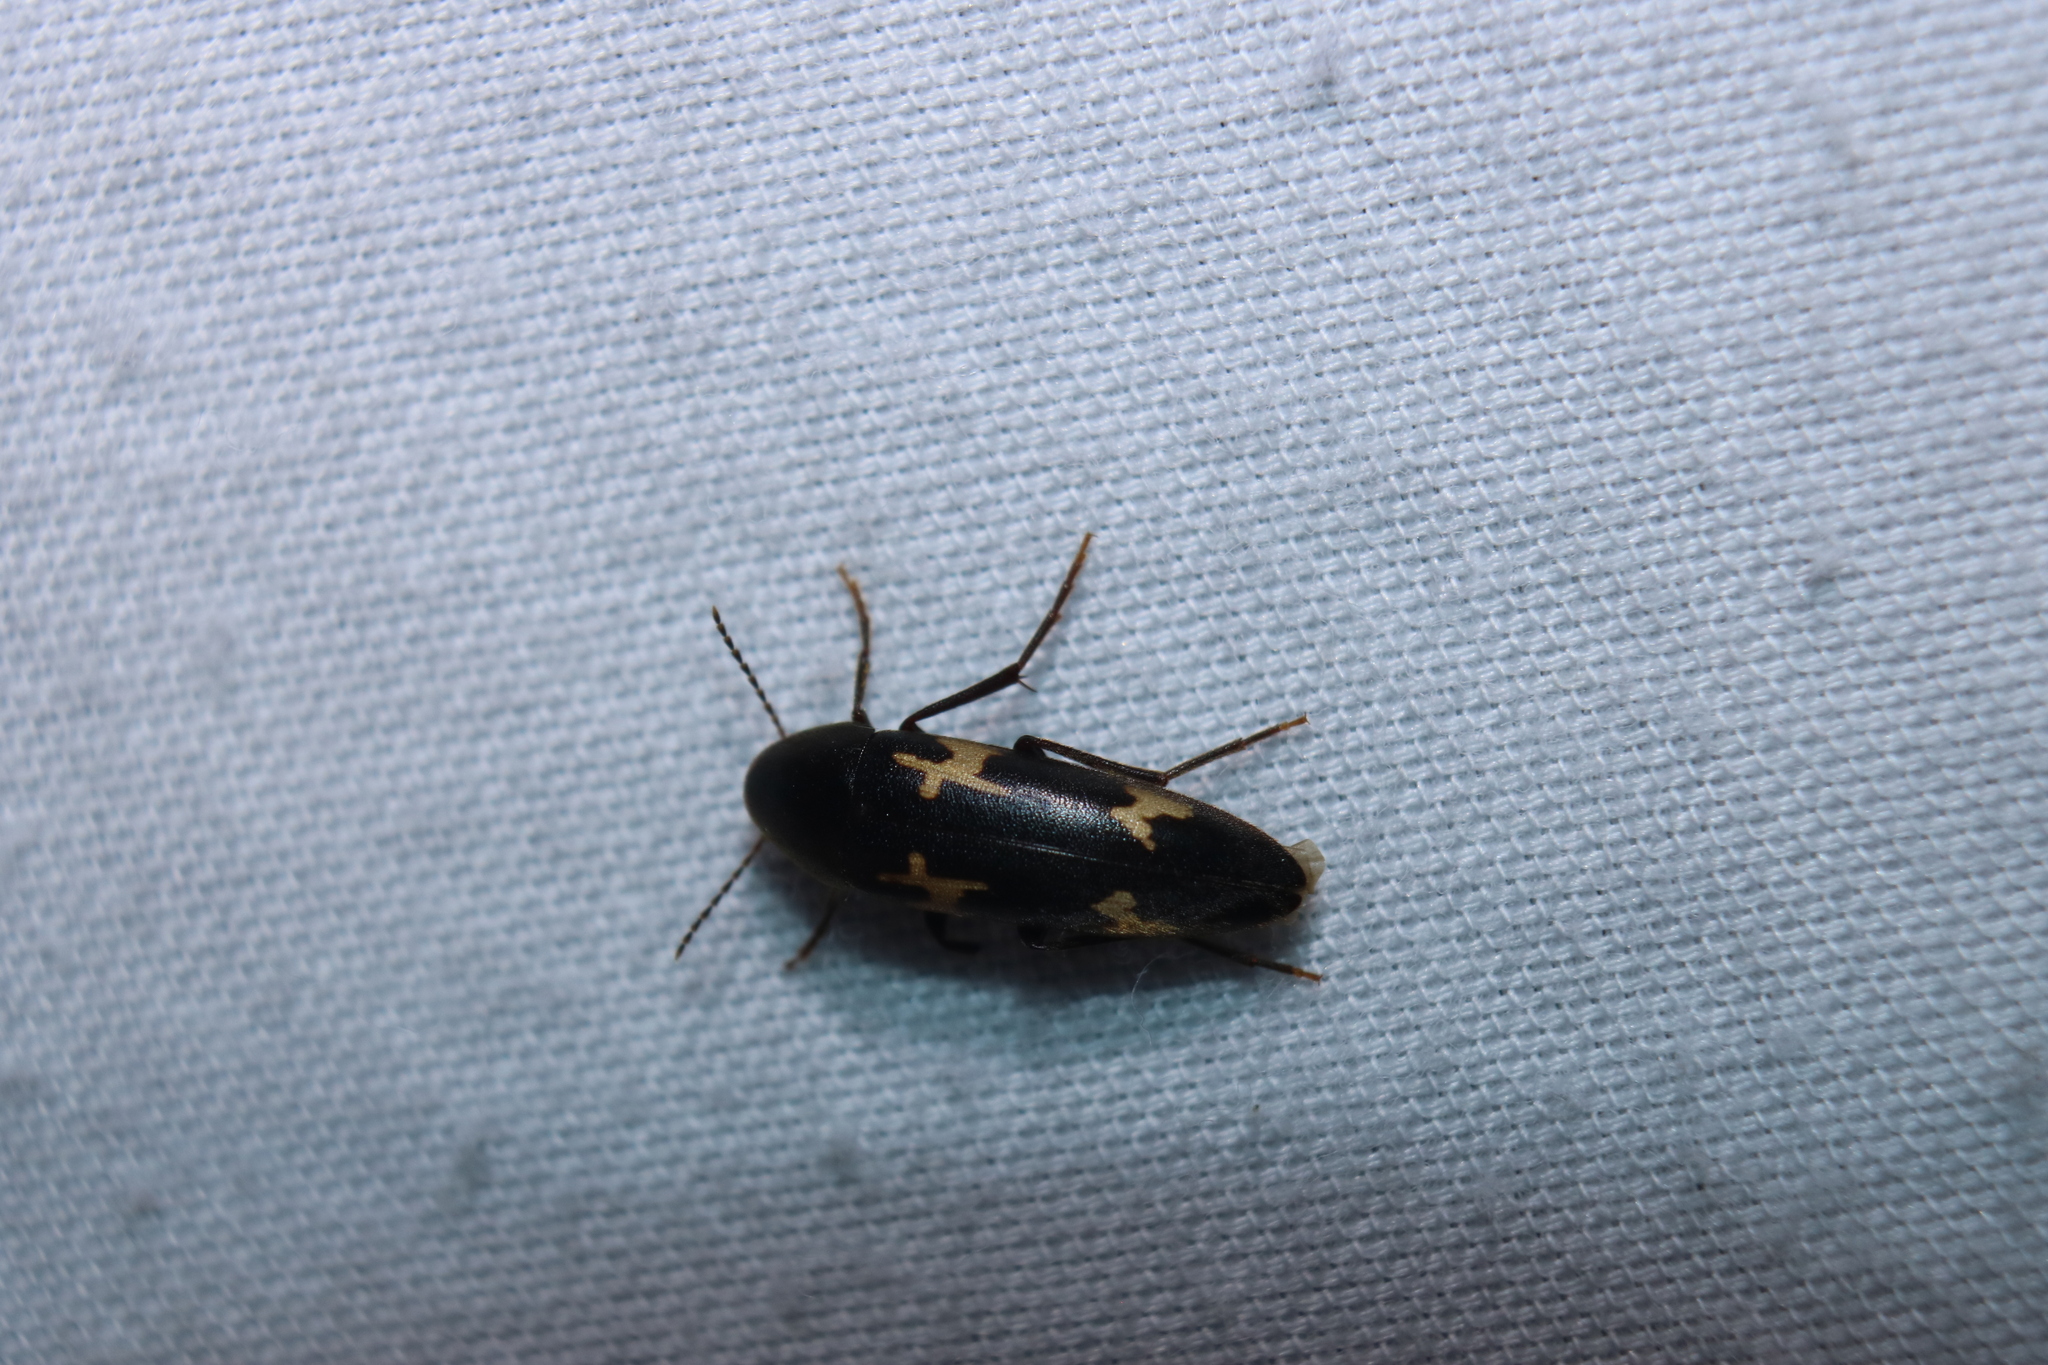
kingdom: Animalia
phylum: Arthropoda
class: Insecta
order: Coleoptera
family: Melandryidae
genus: Dircaea
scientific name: Dircaea liturata
